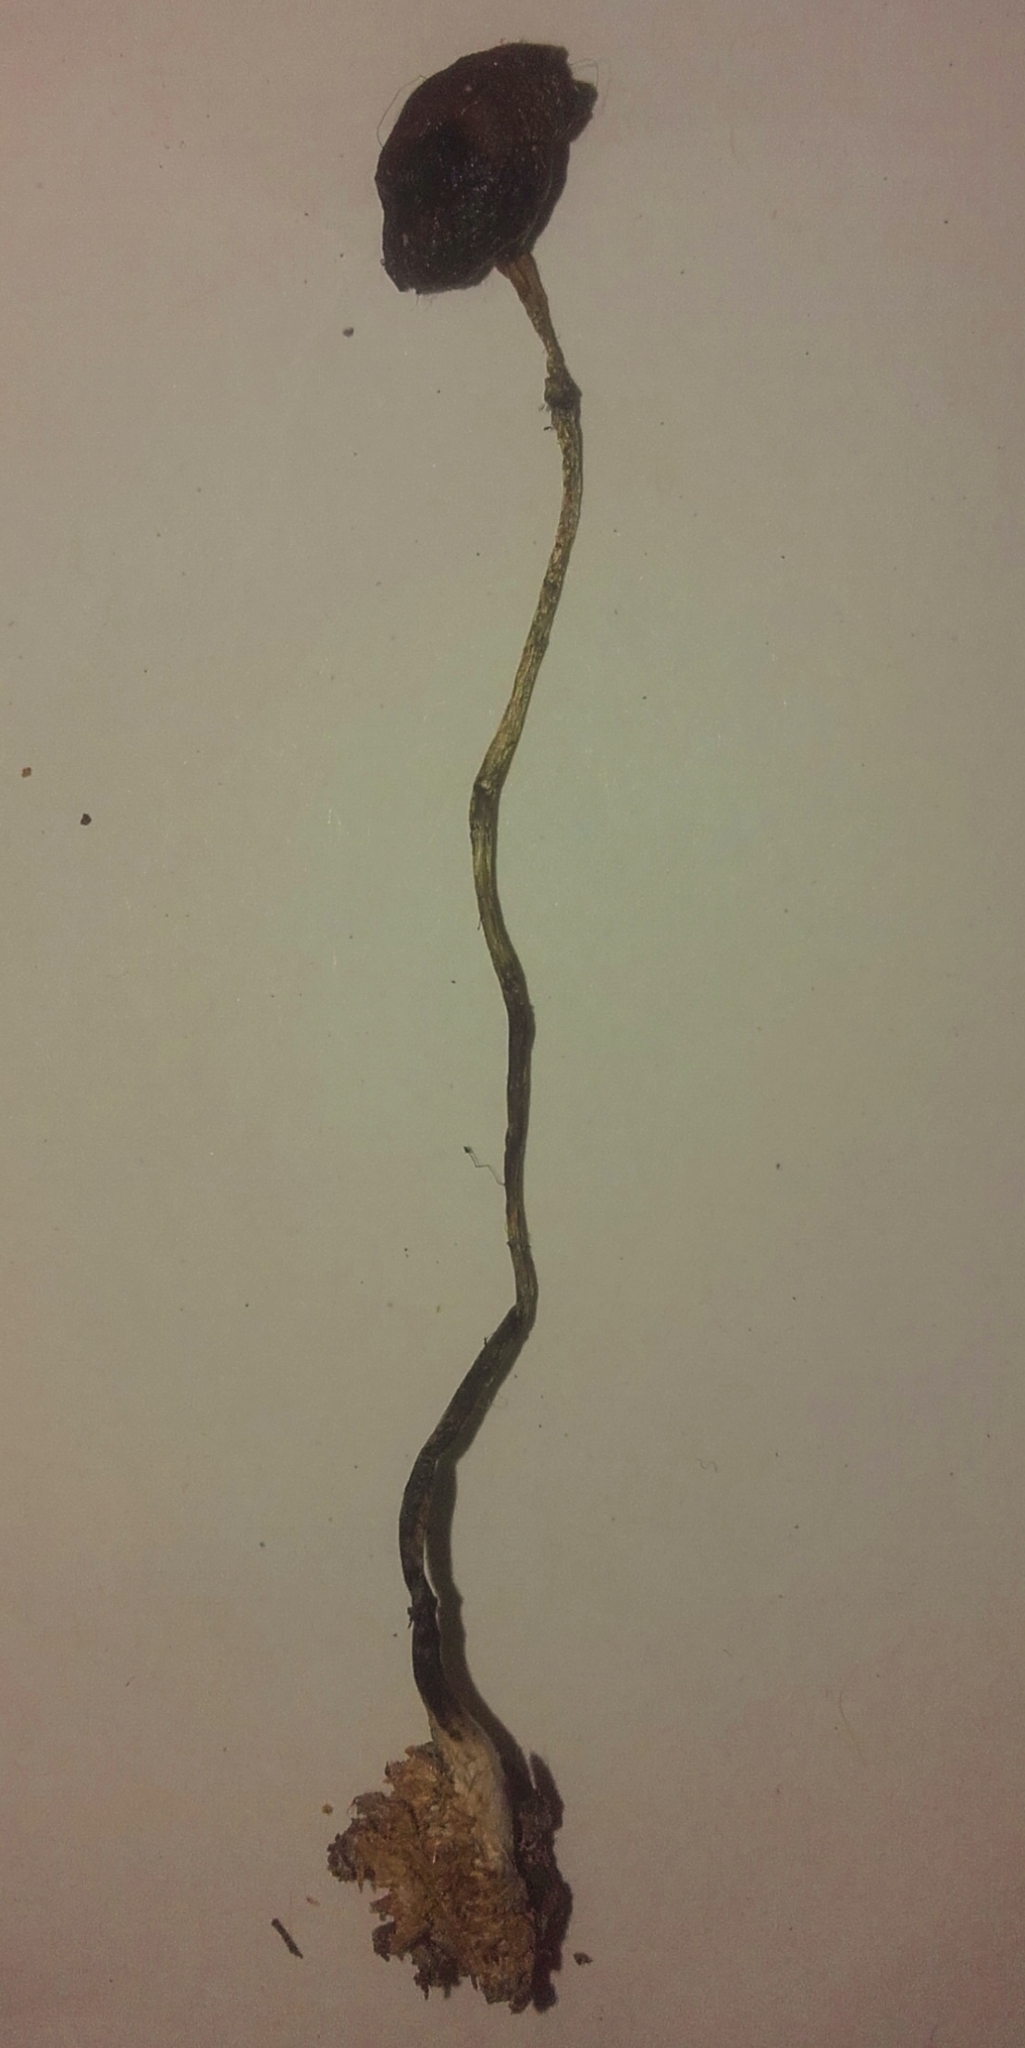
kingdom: Fungi
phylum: Basidiomycota
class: Agaricomycetes
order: Agaricales
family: Hymenogastraceae
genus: Psilocybe
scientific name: Psilocybe alutacea
